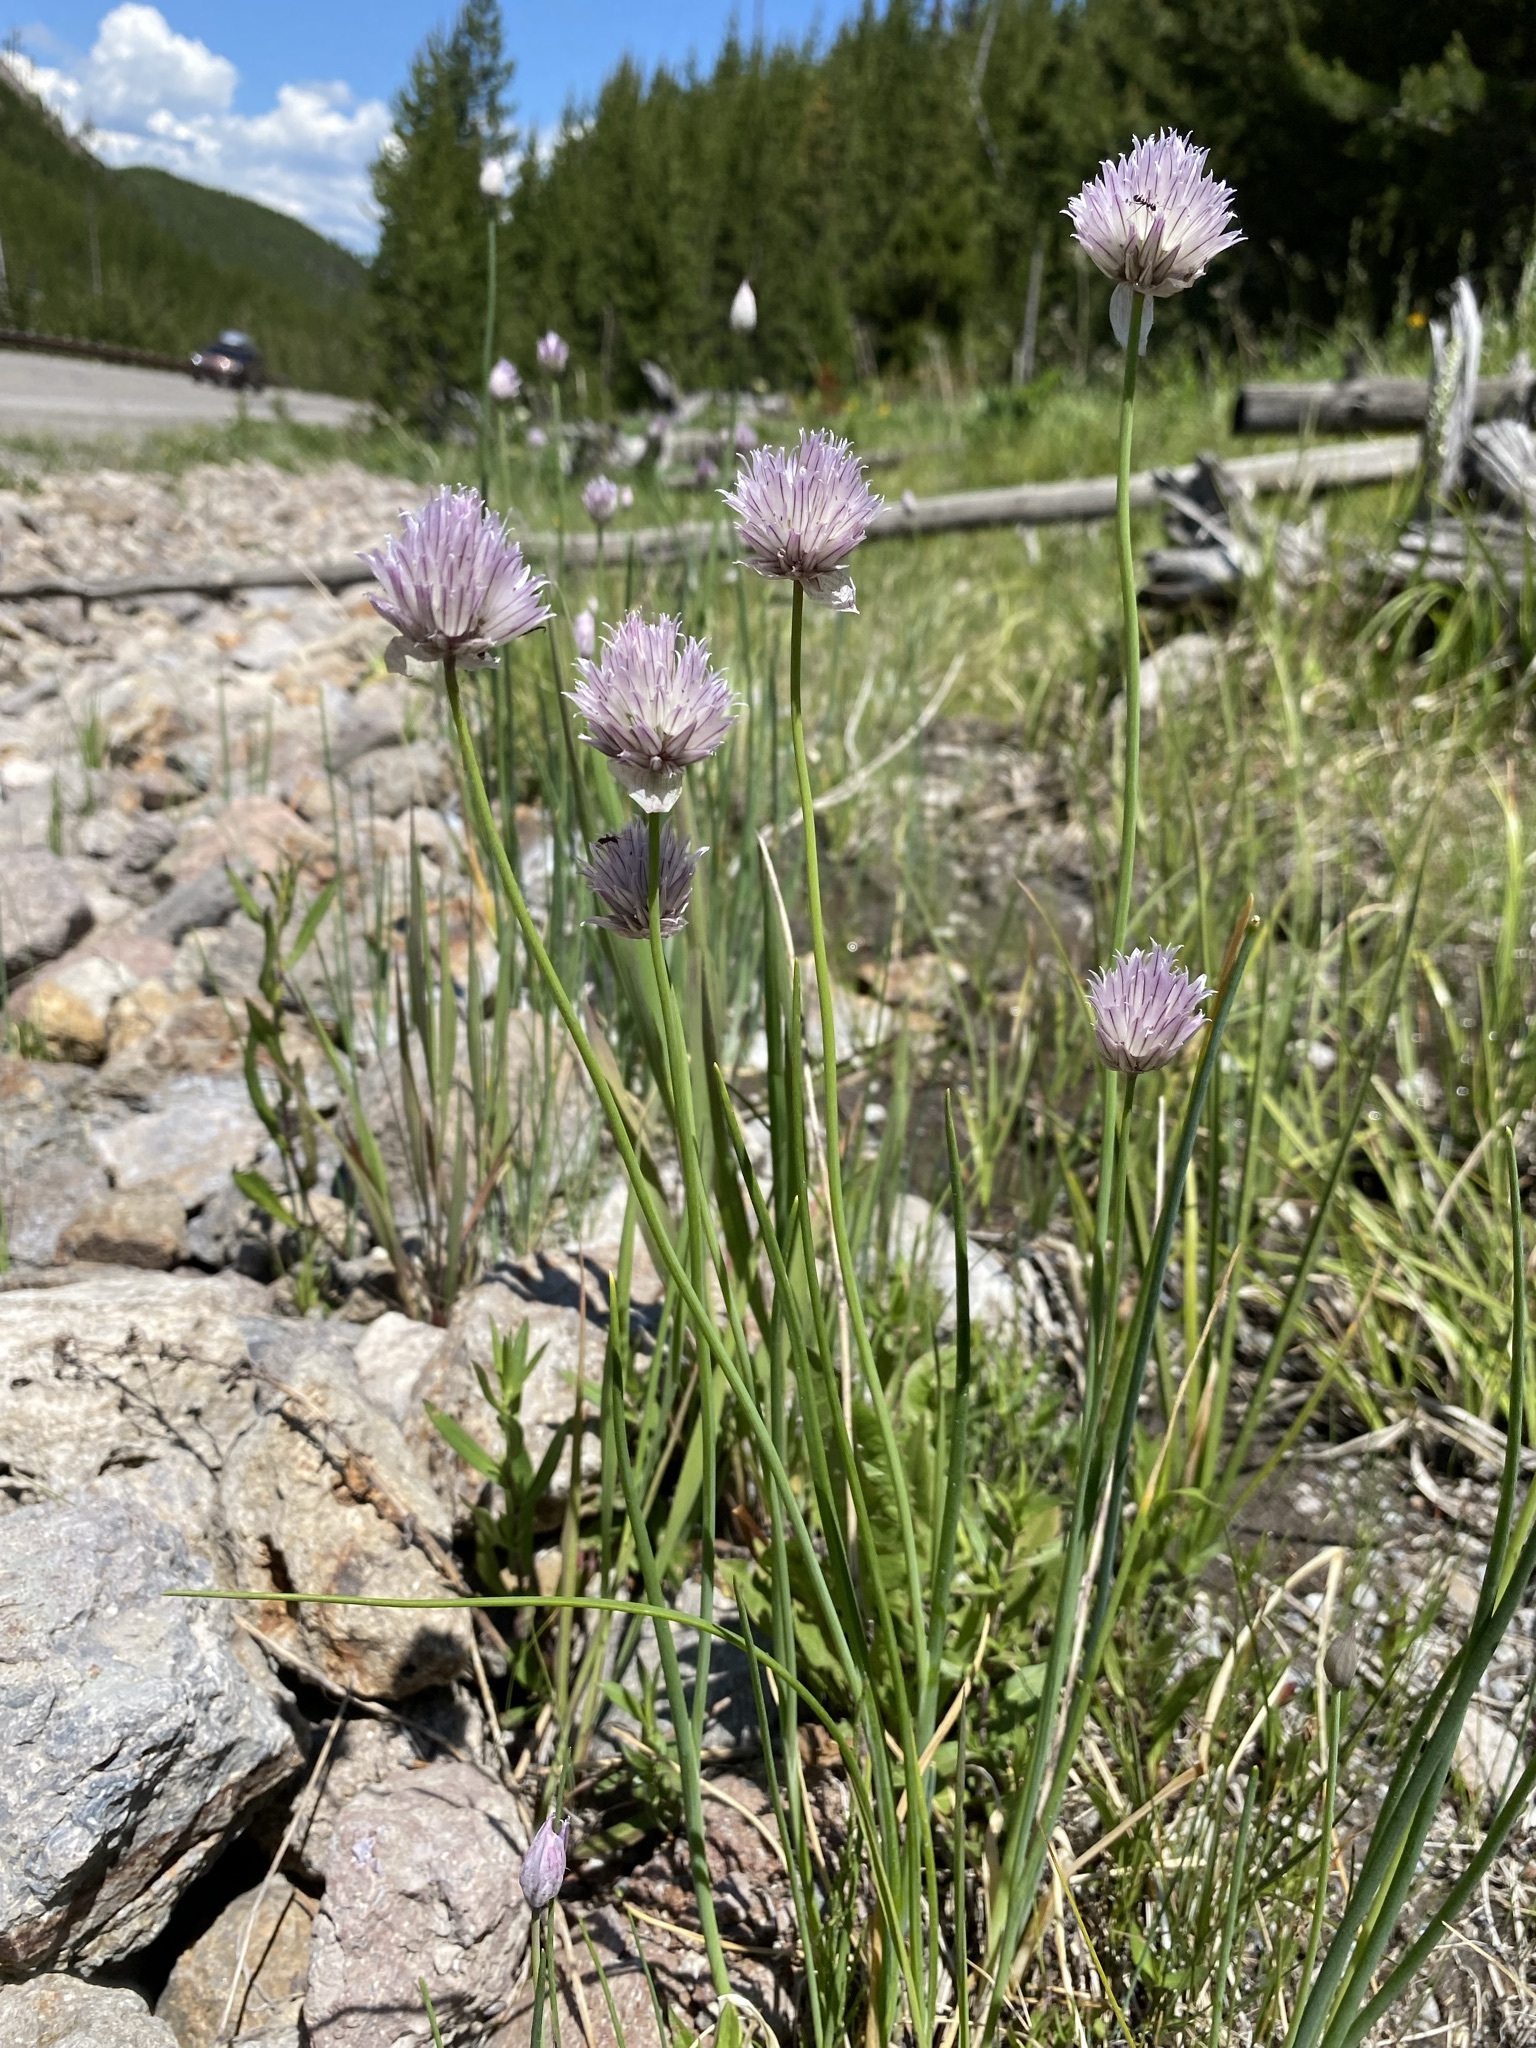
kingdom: Plantae
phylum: Tracheophyta
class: Liliopsida
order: Asparagales
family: Amaryllidaceae
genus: Allium
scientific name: Allium schoenoprasum
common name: Chives
